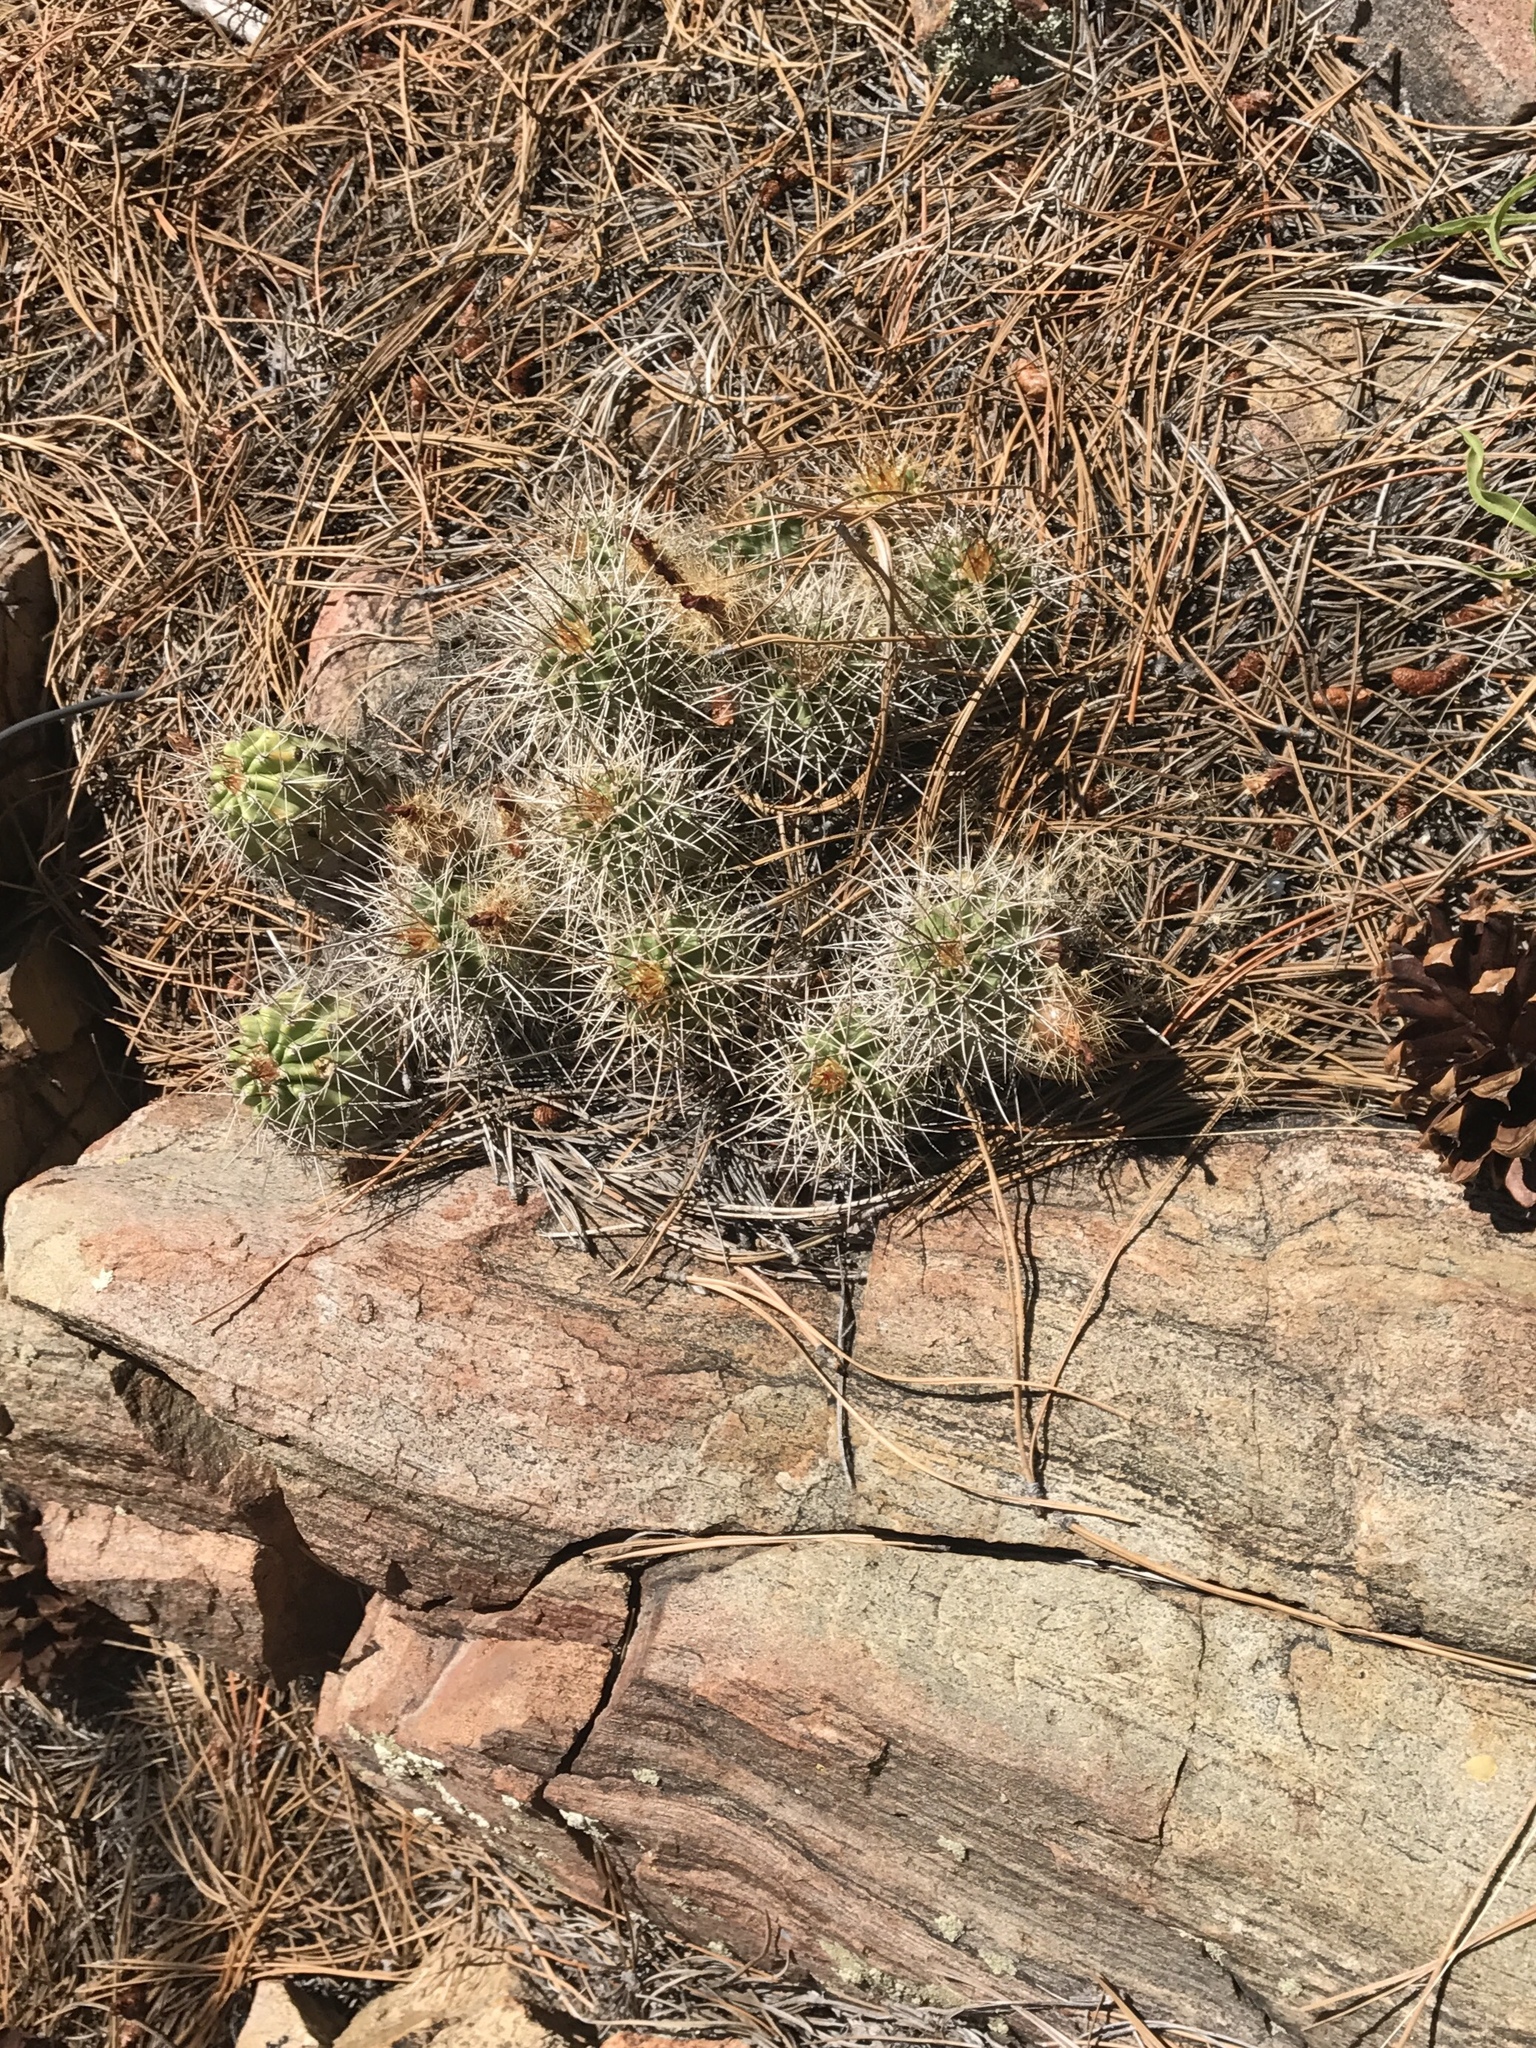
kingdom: Plantae
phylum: Tracheophyta
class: Magnoliopsida
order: Caryophyllales
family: Cactaceae
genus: Echinocereus
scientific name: Echinocereus bakeri
